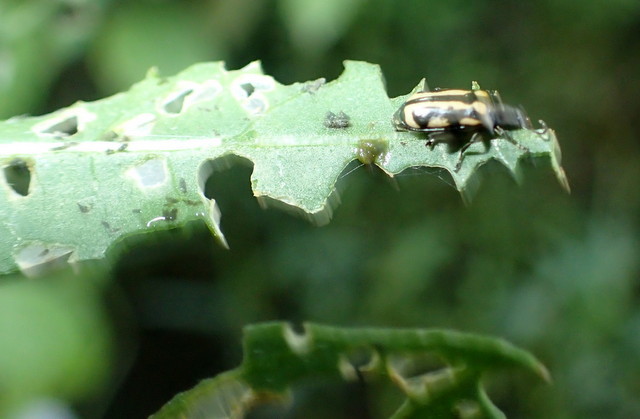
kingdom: Animalia
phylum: Arthropoda
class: Insecta
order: Coleoptera
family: Chrysomelidae
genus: Agasicles
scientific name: Agasicles hygrophila
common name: Alligatorweed flea beetle
